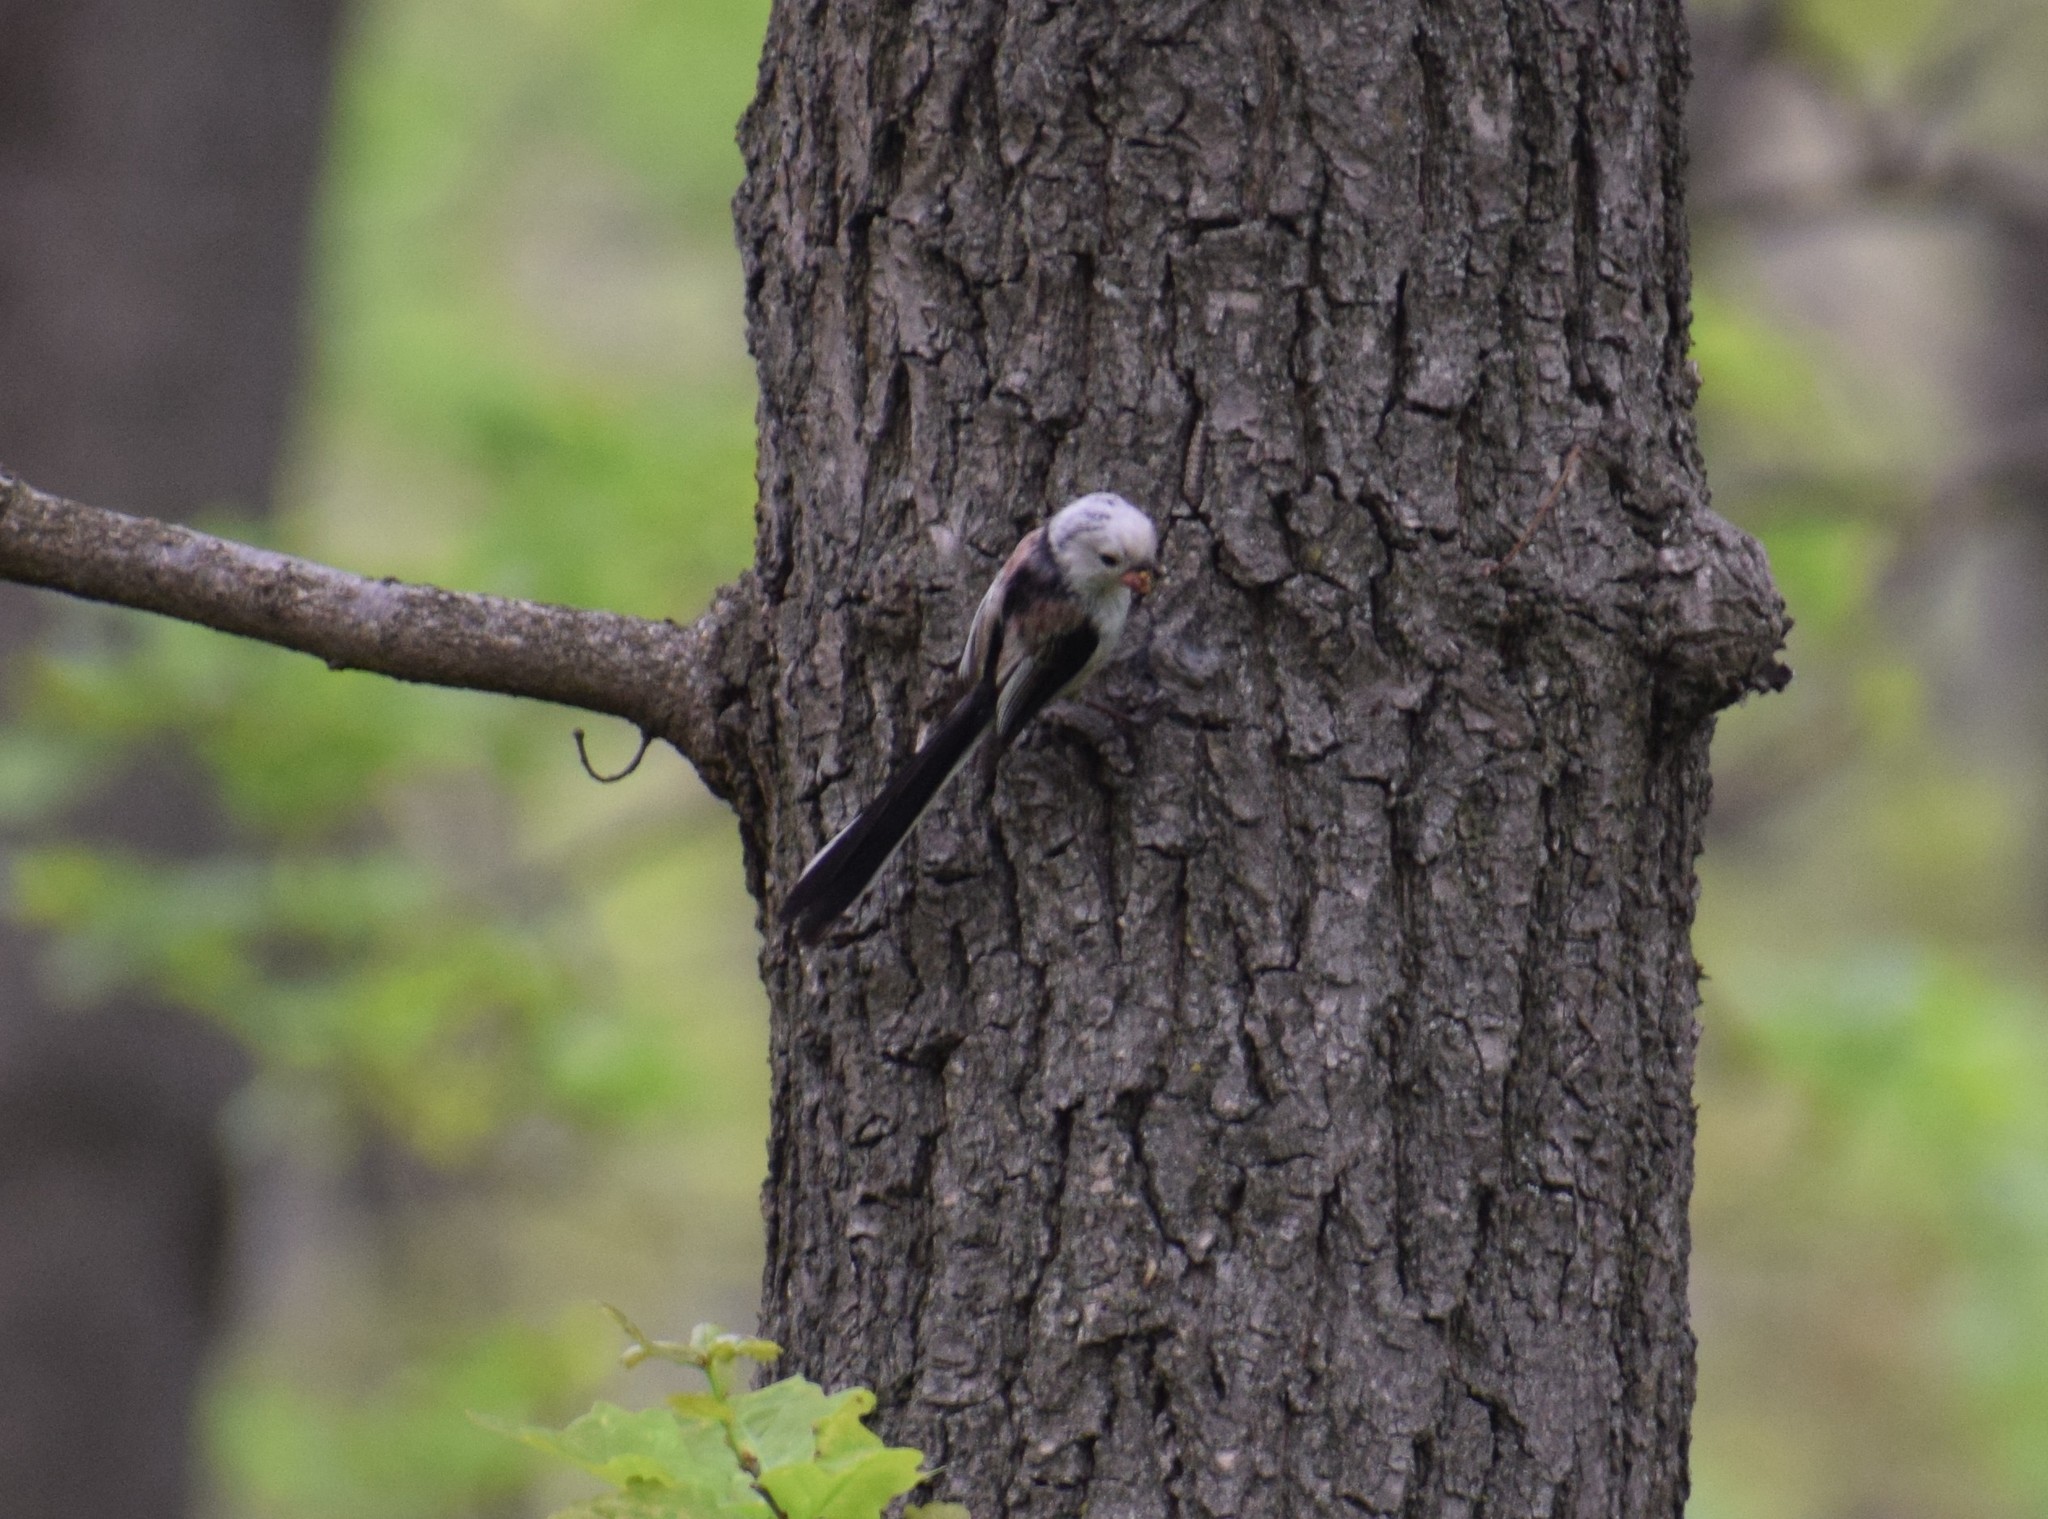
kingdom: Animalia
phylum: Chordata
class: Aves
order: Passeriformes
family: Aegithalidae
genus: Aegithalos
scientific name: Aegithalos caudatus
